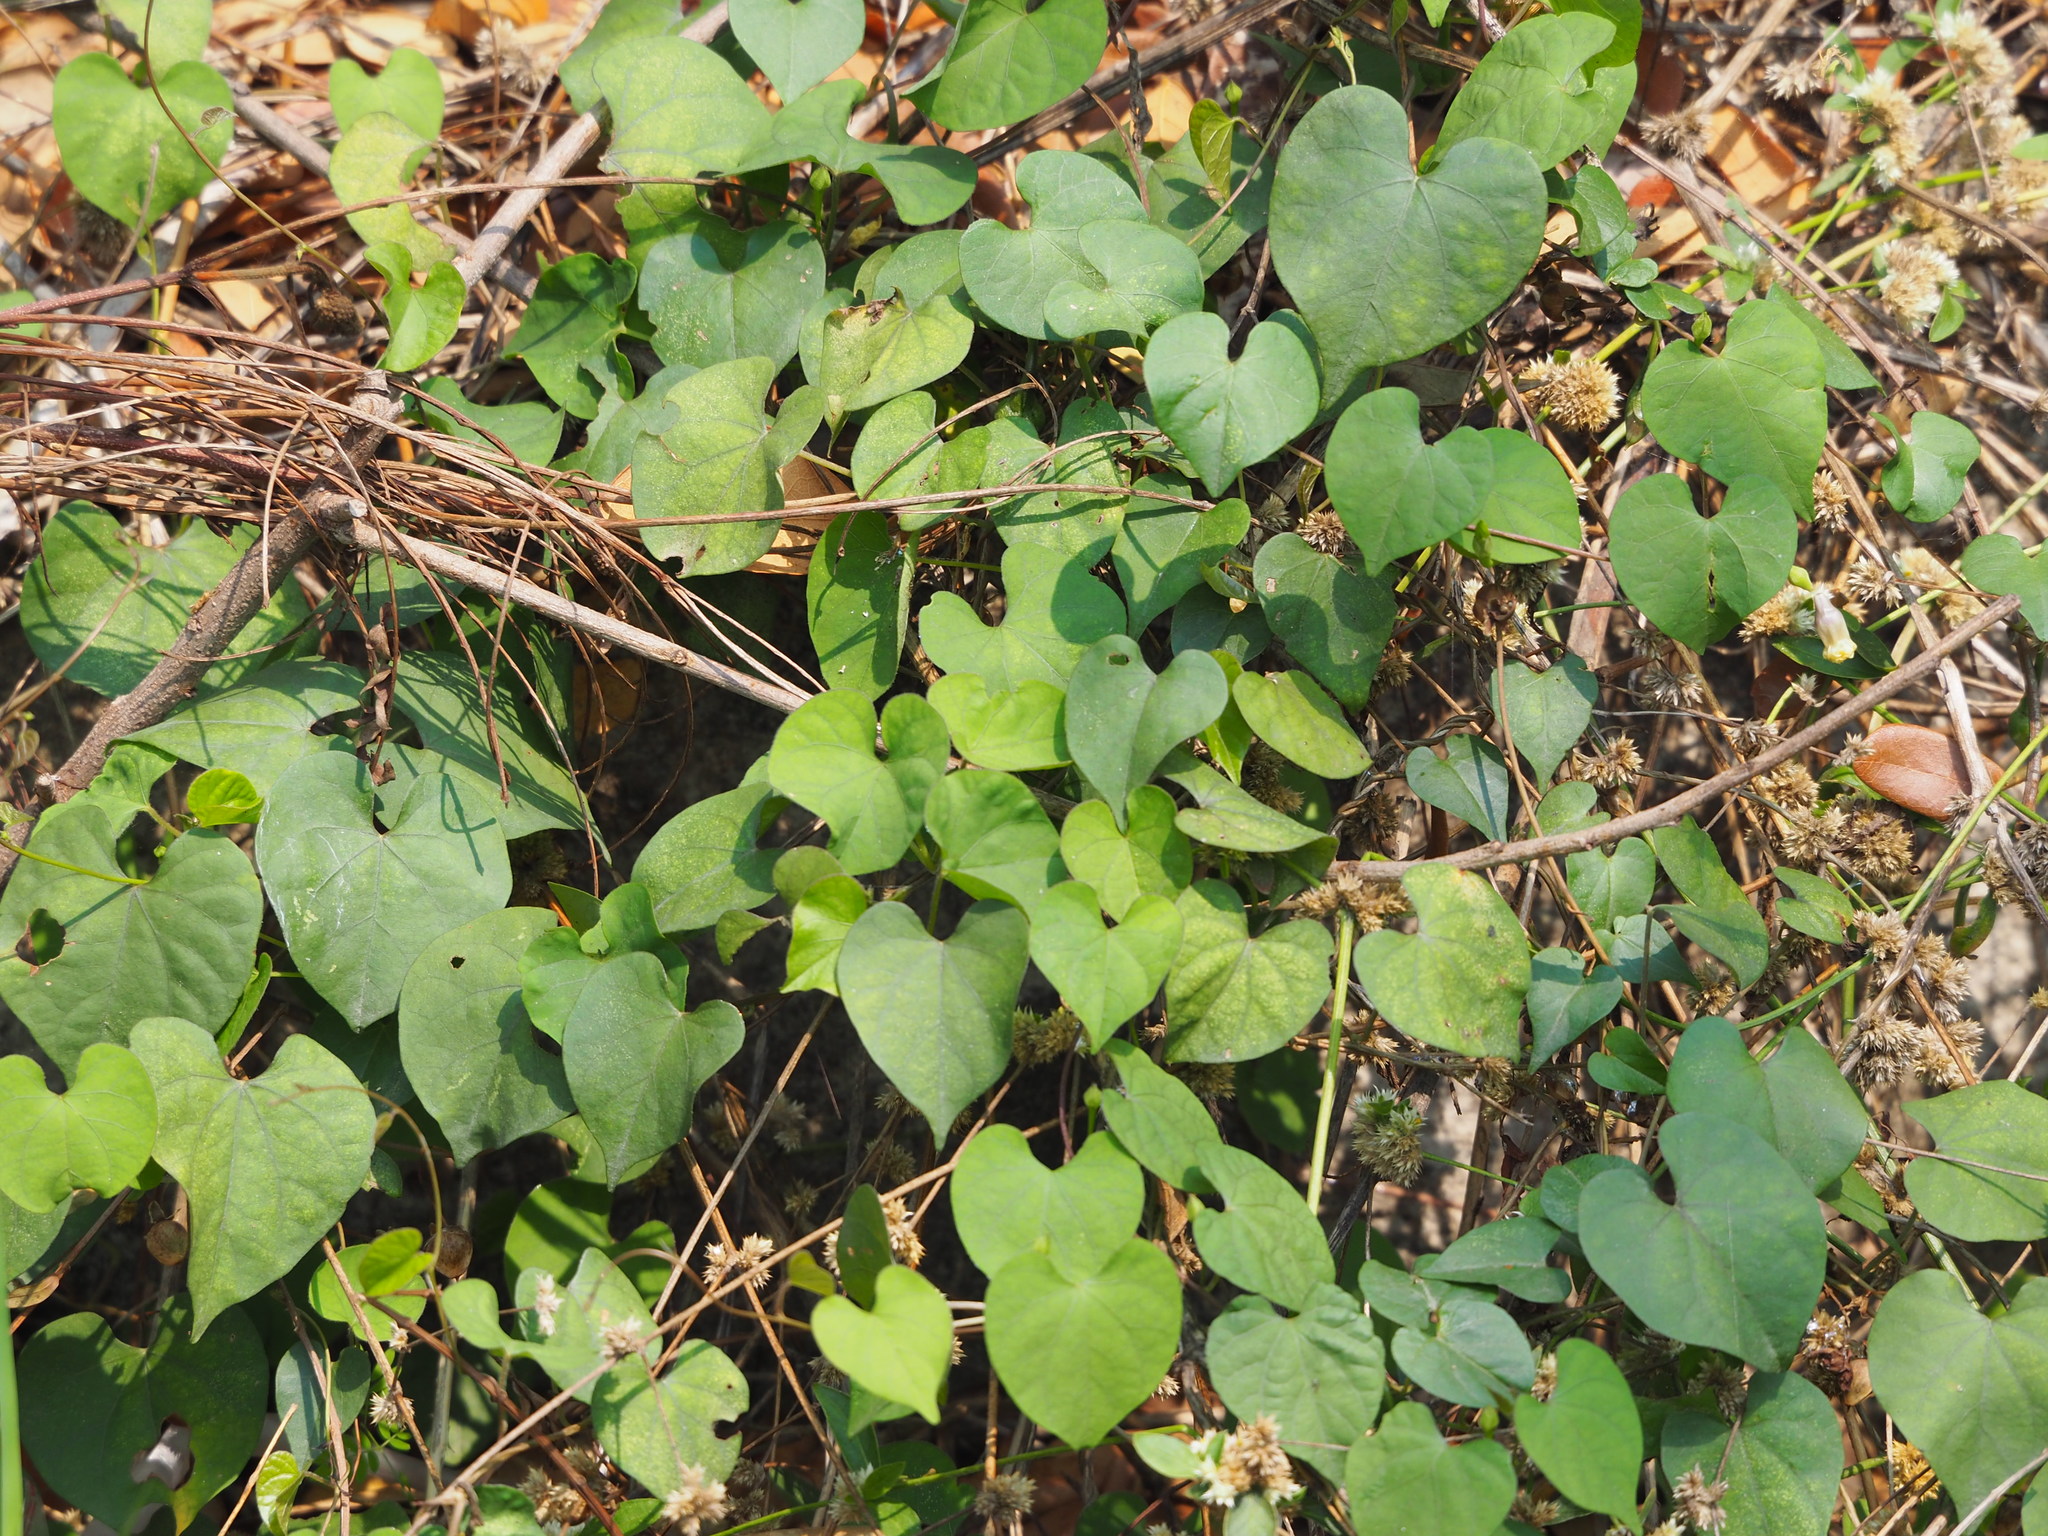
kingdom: Plantae
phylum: Tracheophyta
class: Magnoliopsida
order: Solanales
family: Convolvulaceae
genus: Ipomoea
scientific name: Ipomoea obscura
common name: Obscure morning-glory
